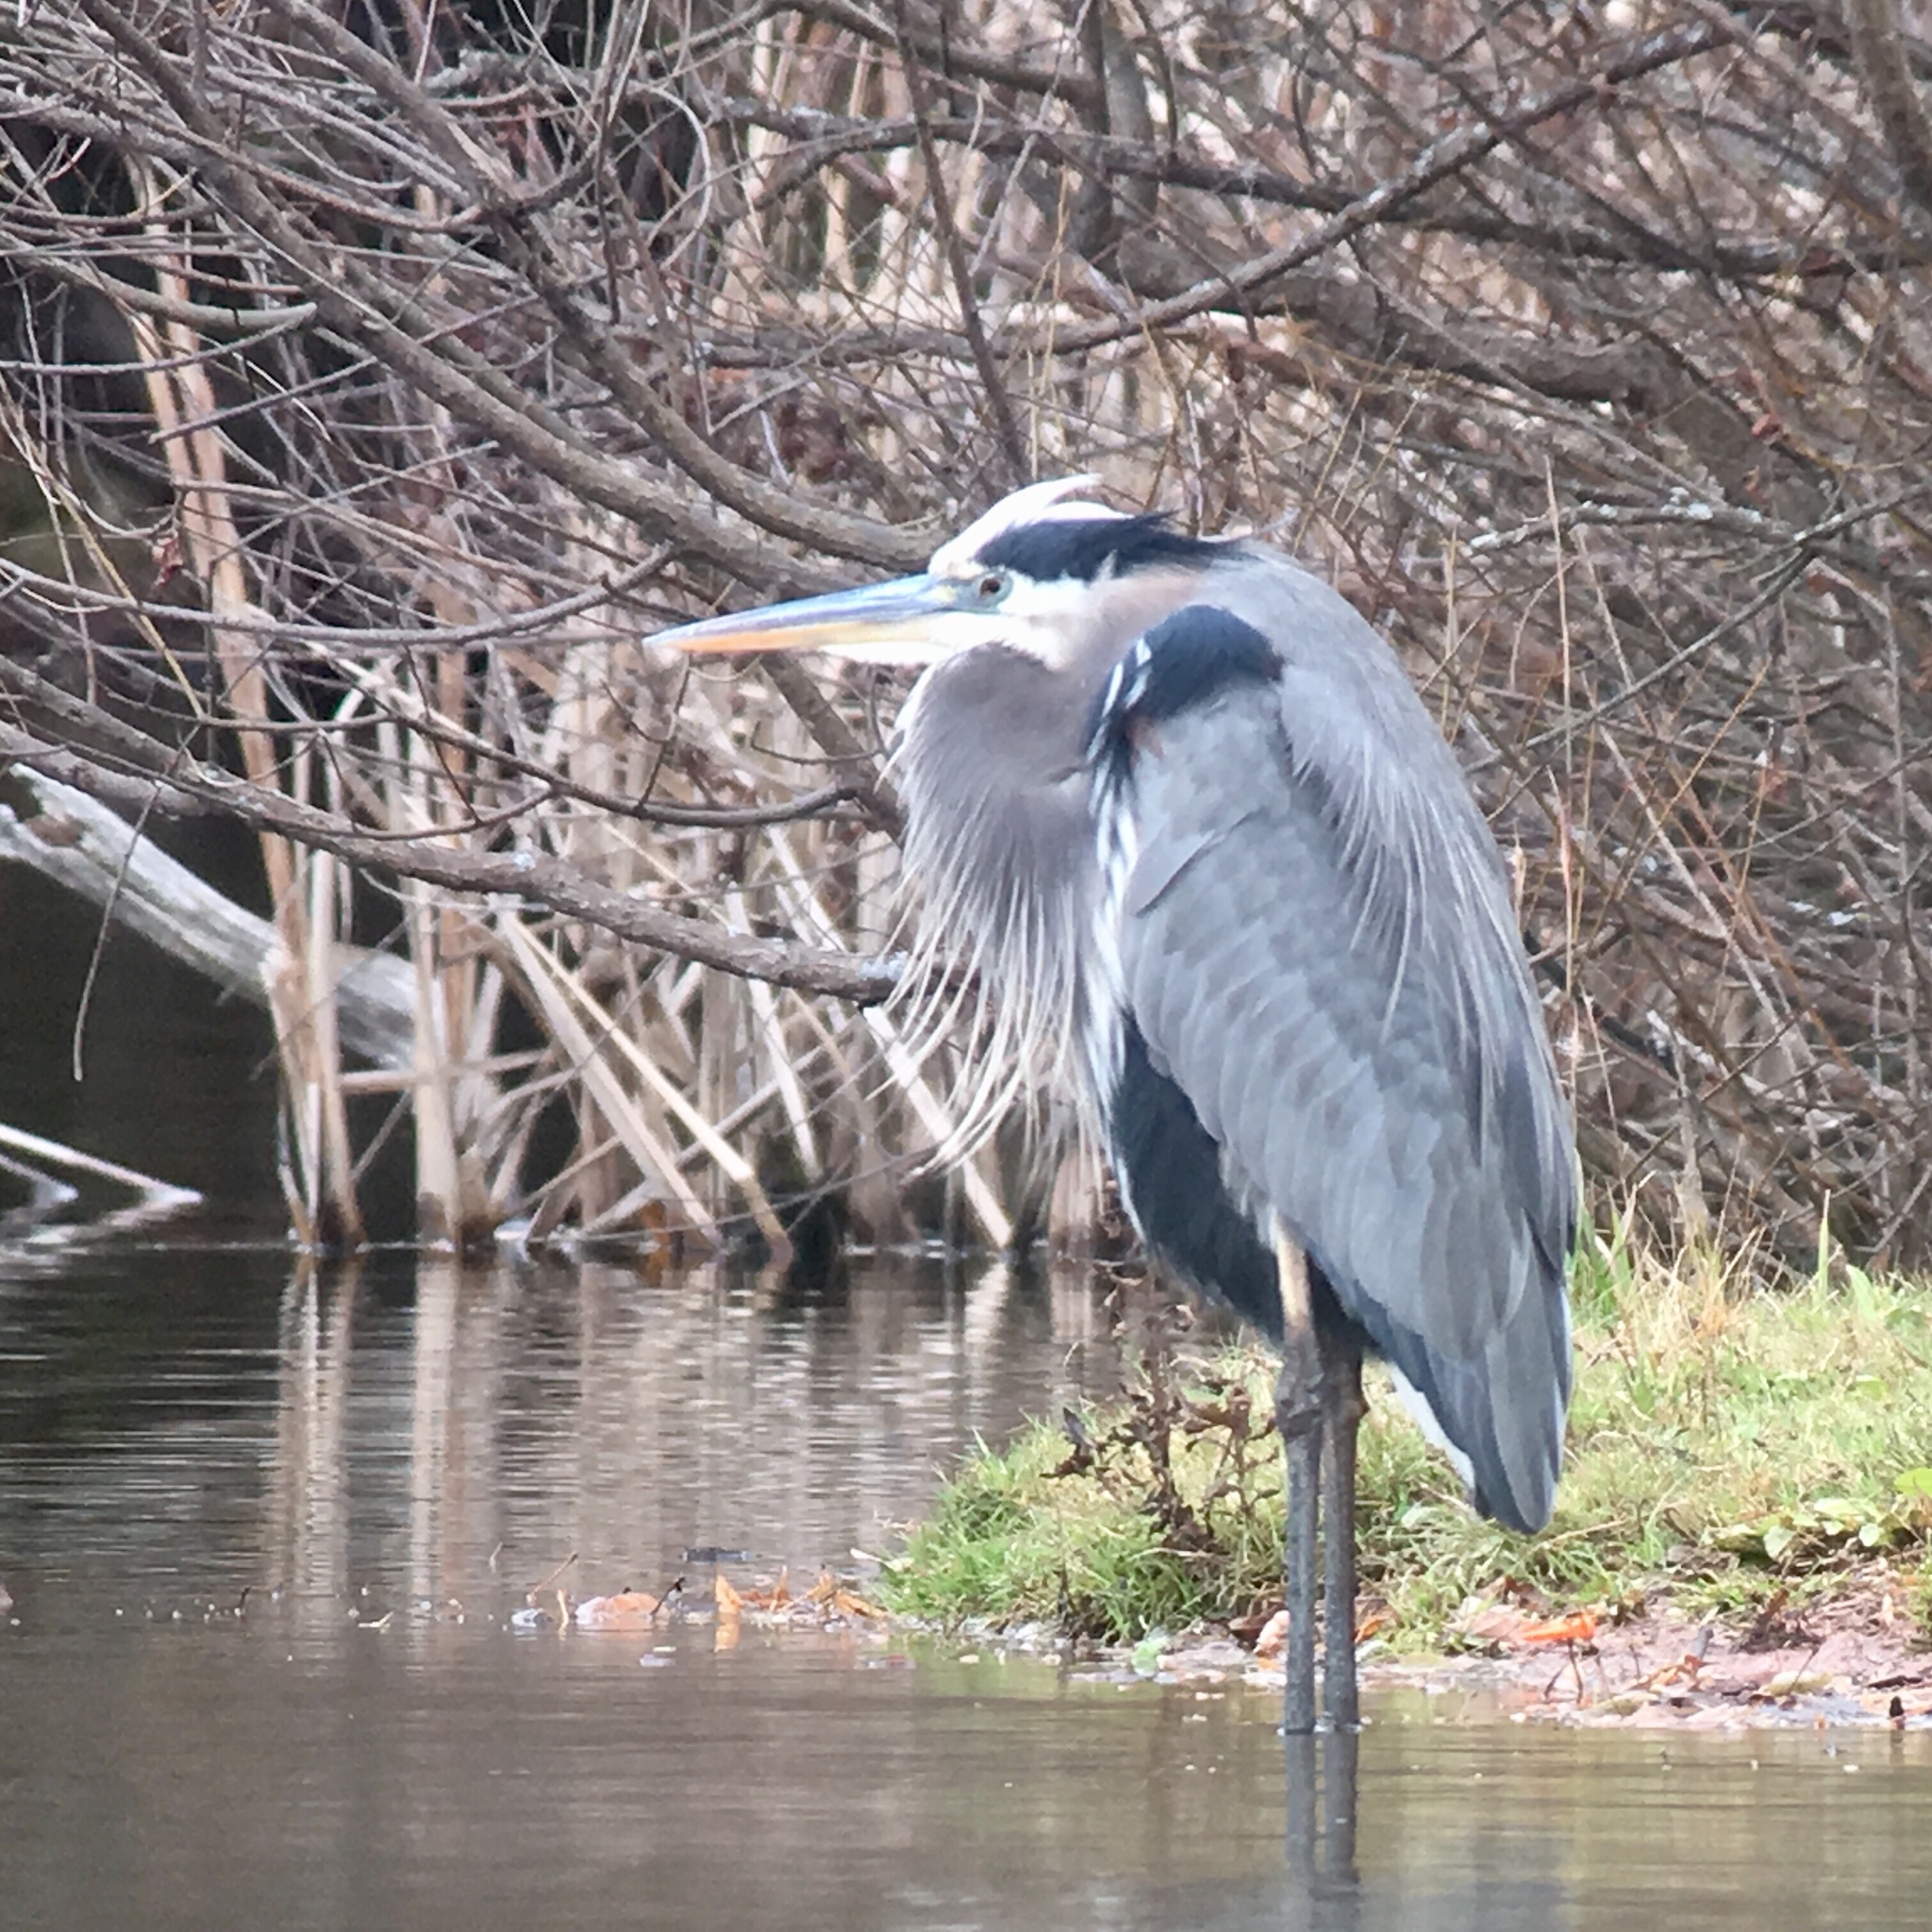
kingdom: Animalia
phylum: Chordata
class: Aves
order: Pelecaniformes
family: Ardeidae
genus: Ardea
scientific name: Ardea herodias
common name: Great blue heron
